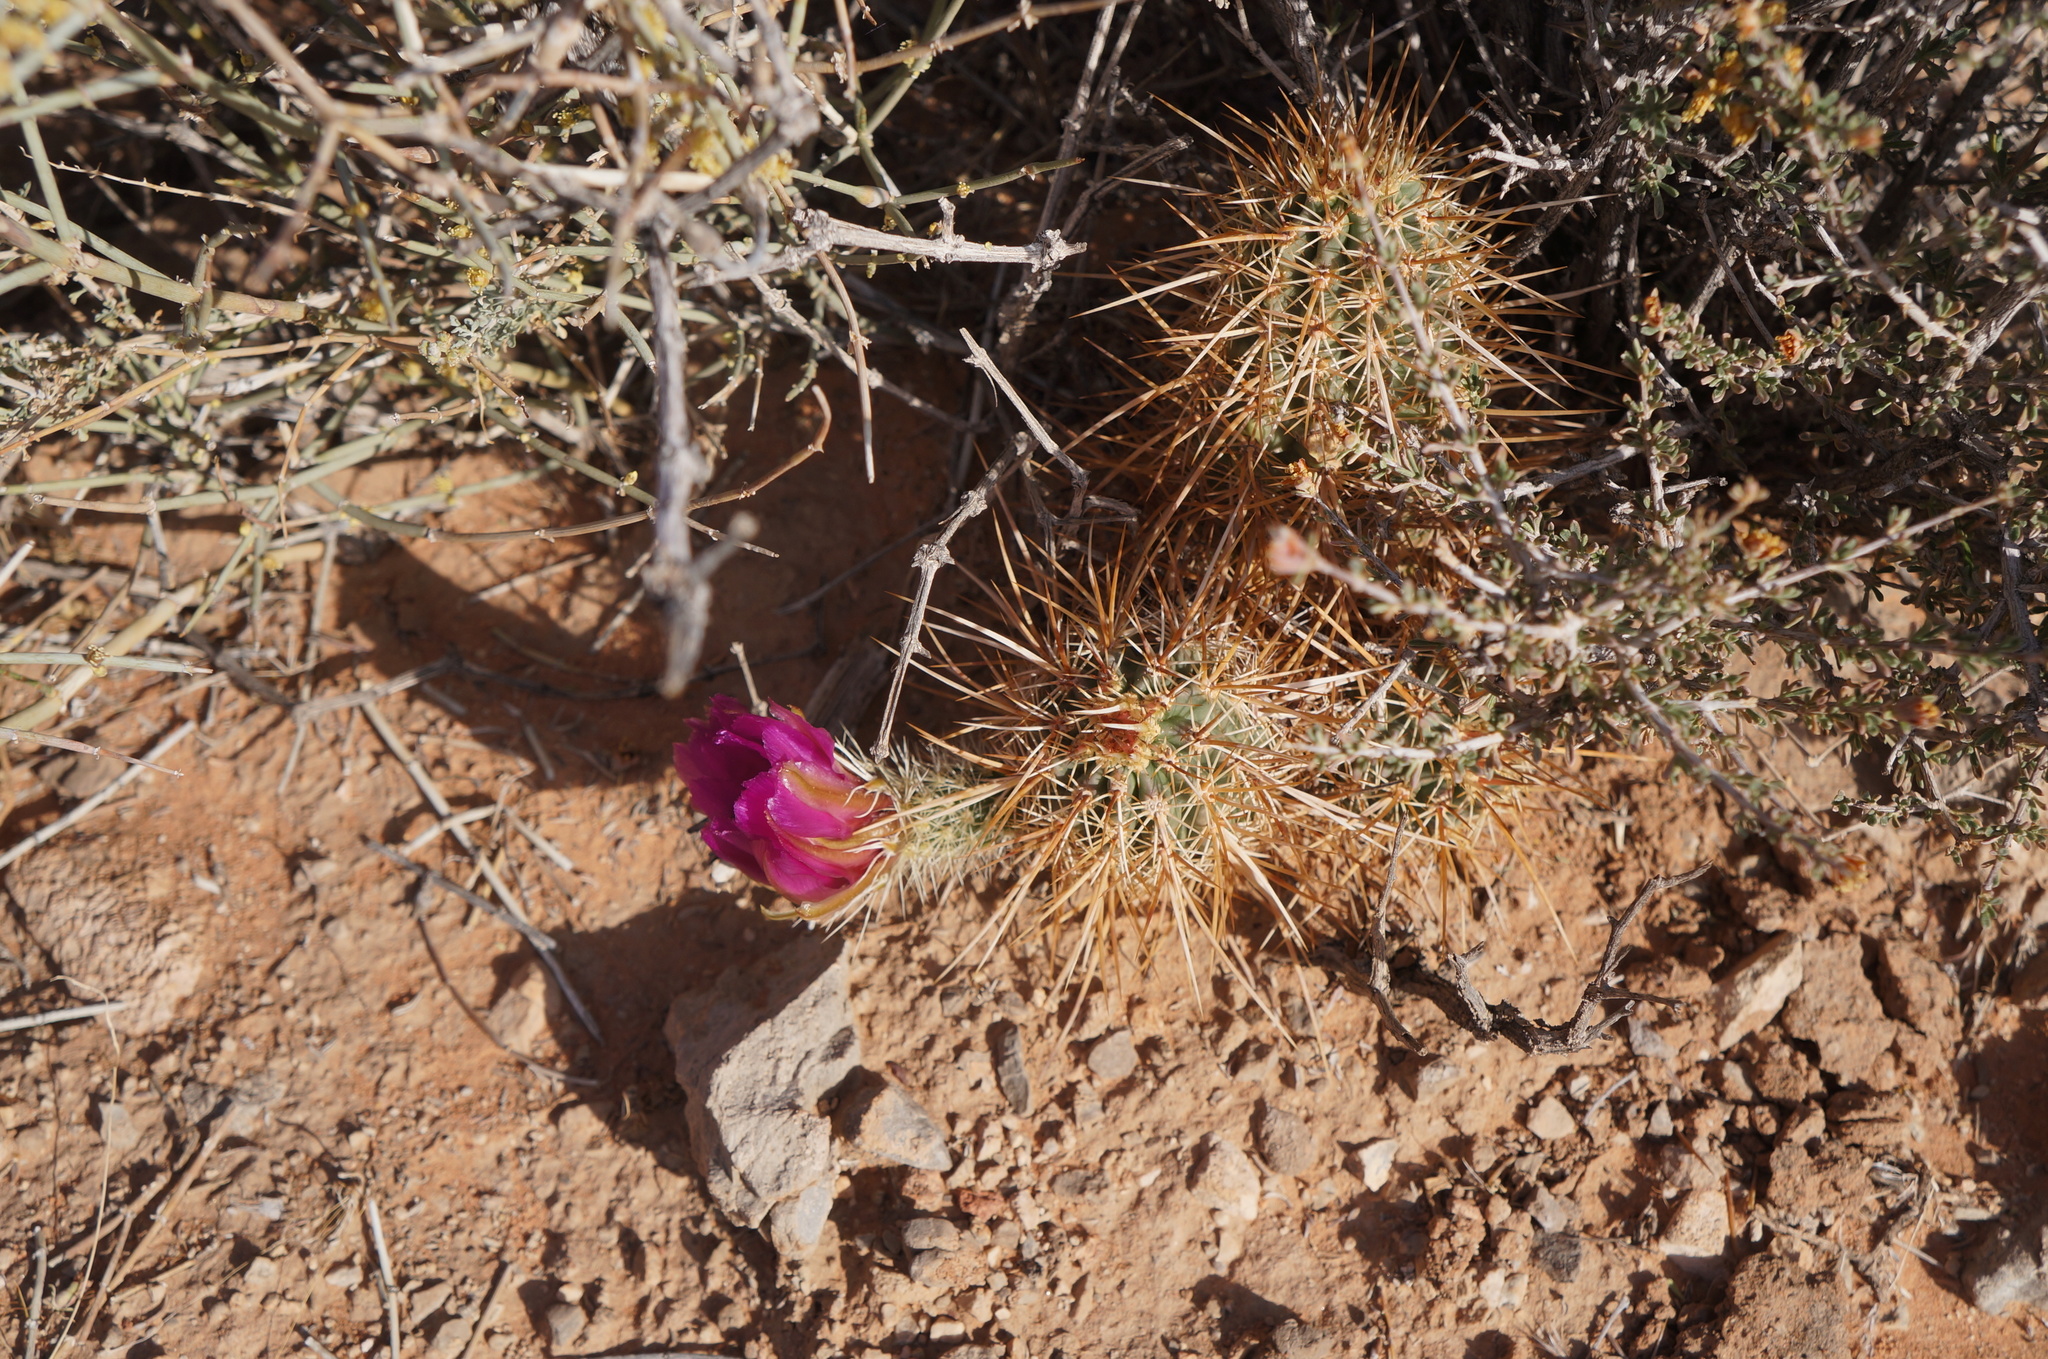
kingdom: Plantae
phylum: Tracheophyta
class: Magnoliopsida
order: Caryophyllales
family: Cactaceae
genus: Echinocereus
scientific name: Echinocereus engelmannii
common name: Engelmann's hedgehog cactus
